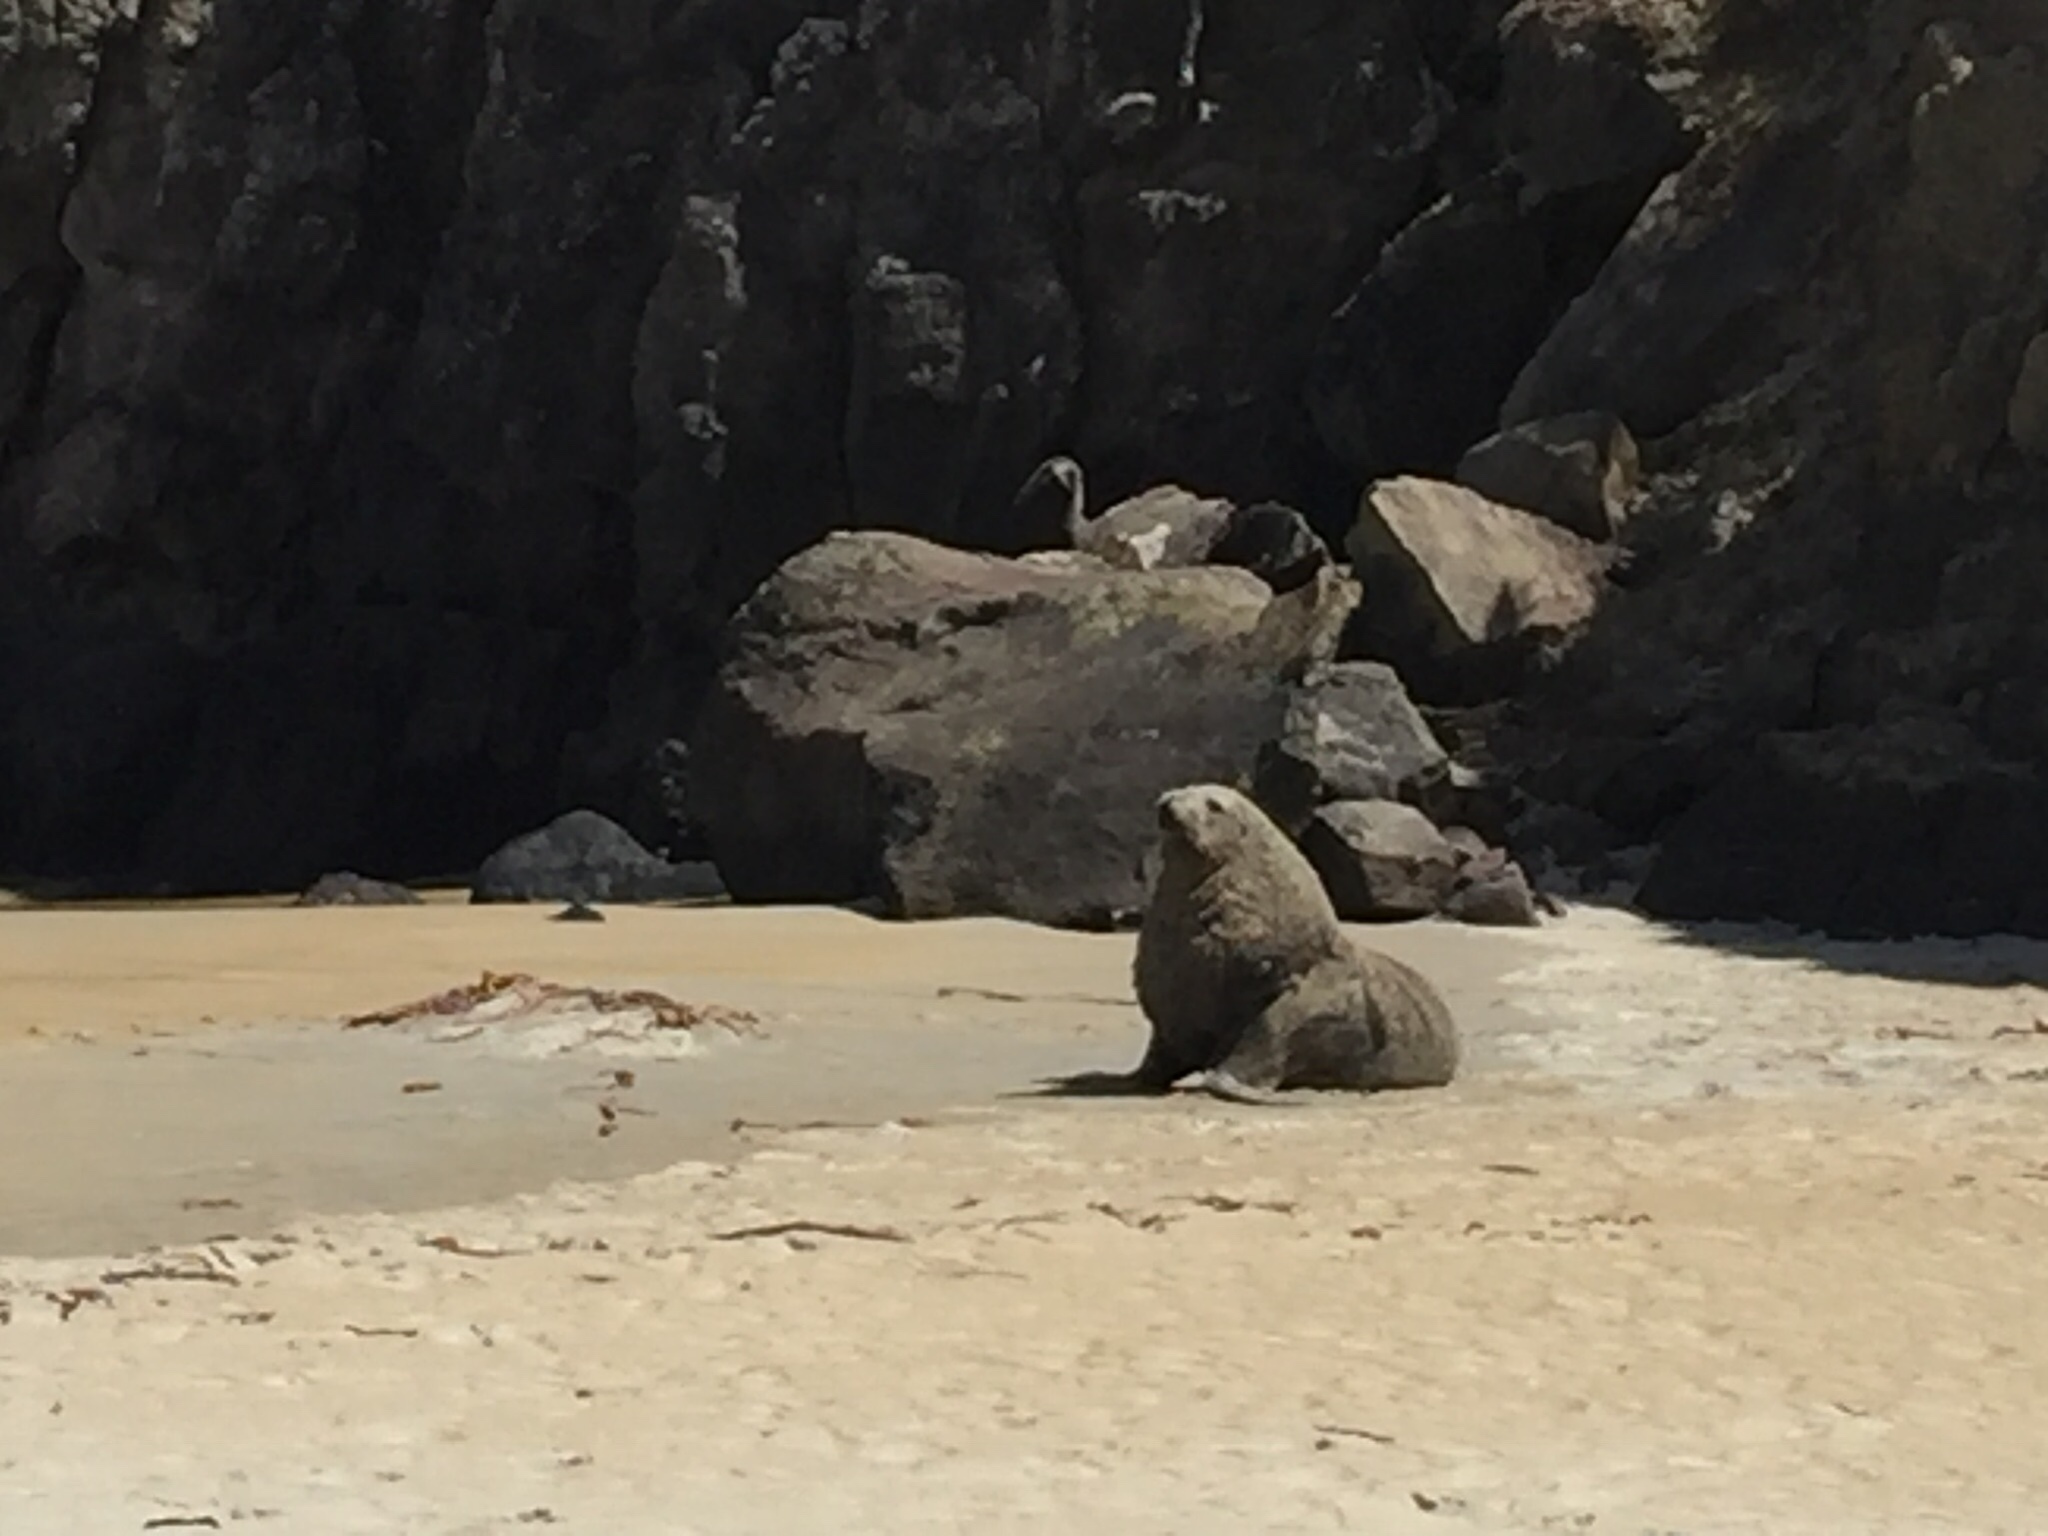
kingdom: Animalia
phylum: Chordata
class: Mammalia
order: Carnivora
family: Otariidae
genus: Phocarctos
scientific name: Phocarctos hookeri
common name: New zealand sea lion
